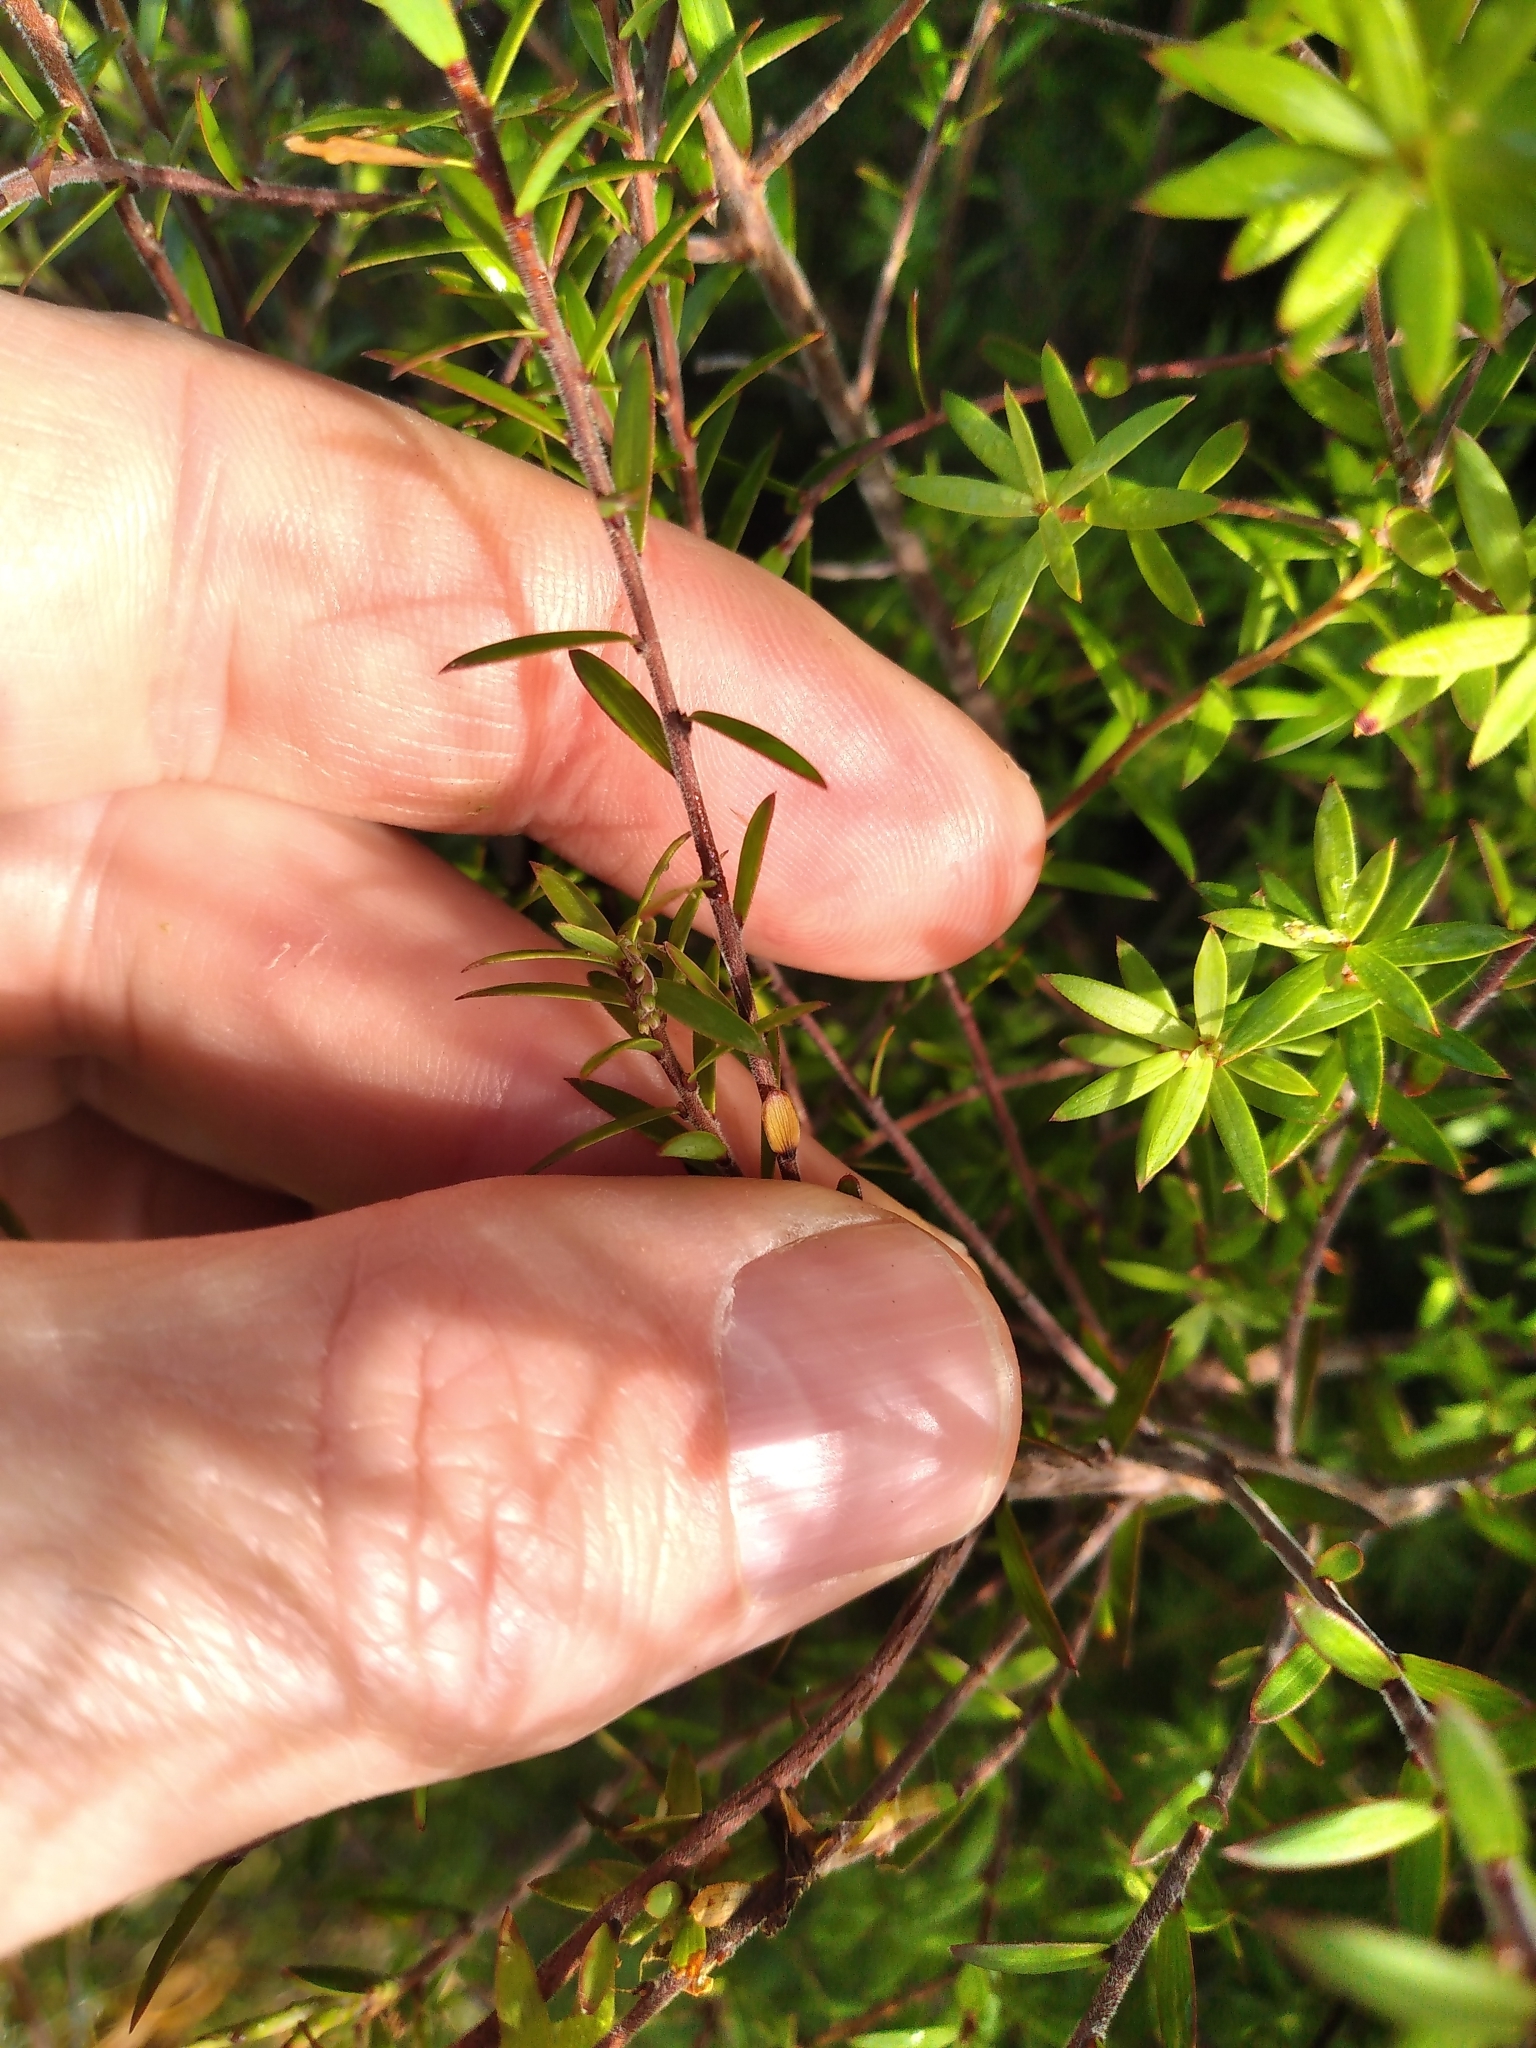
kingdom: Plantae
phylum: Tracheophyta
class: Magnoliopsida
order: Ericales
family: Ericaceae
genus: Leucopogon
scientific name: Leucopogon fasciculatus
